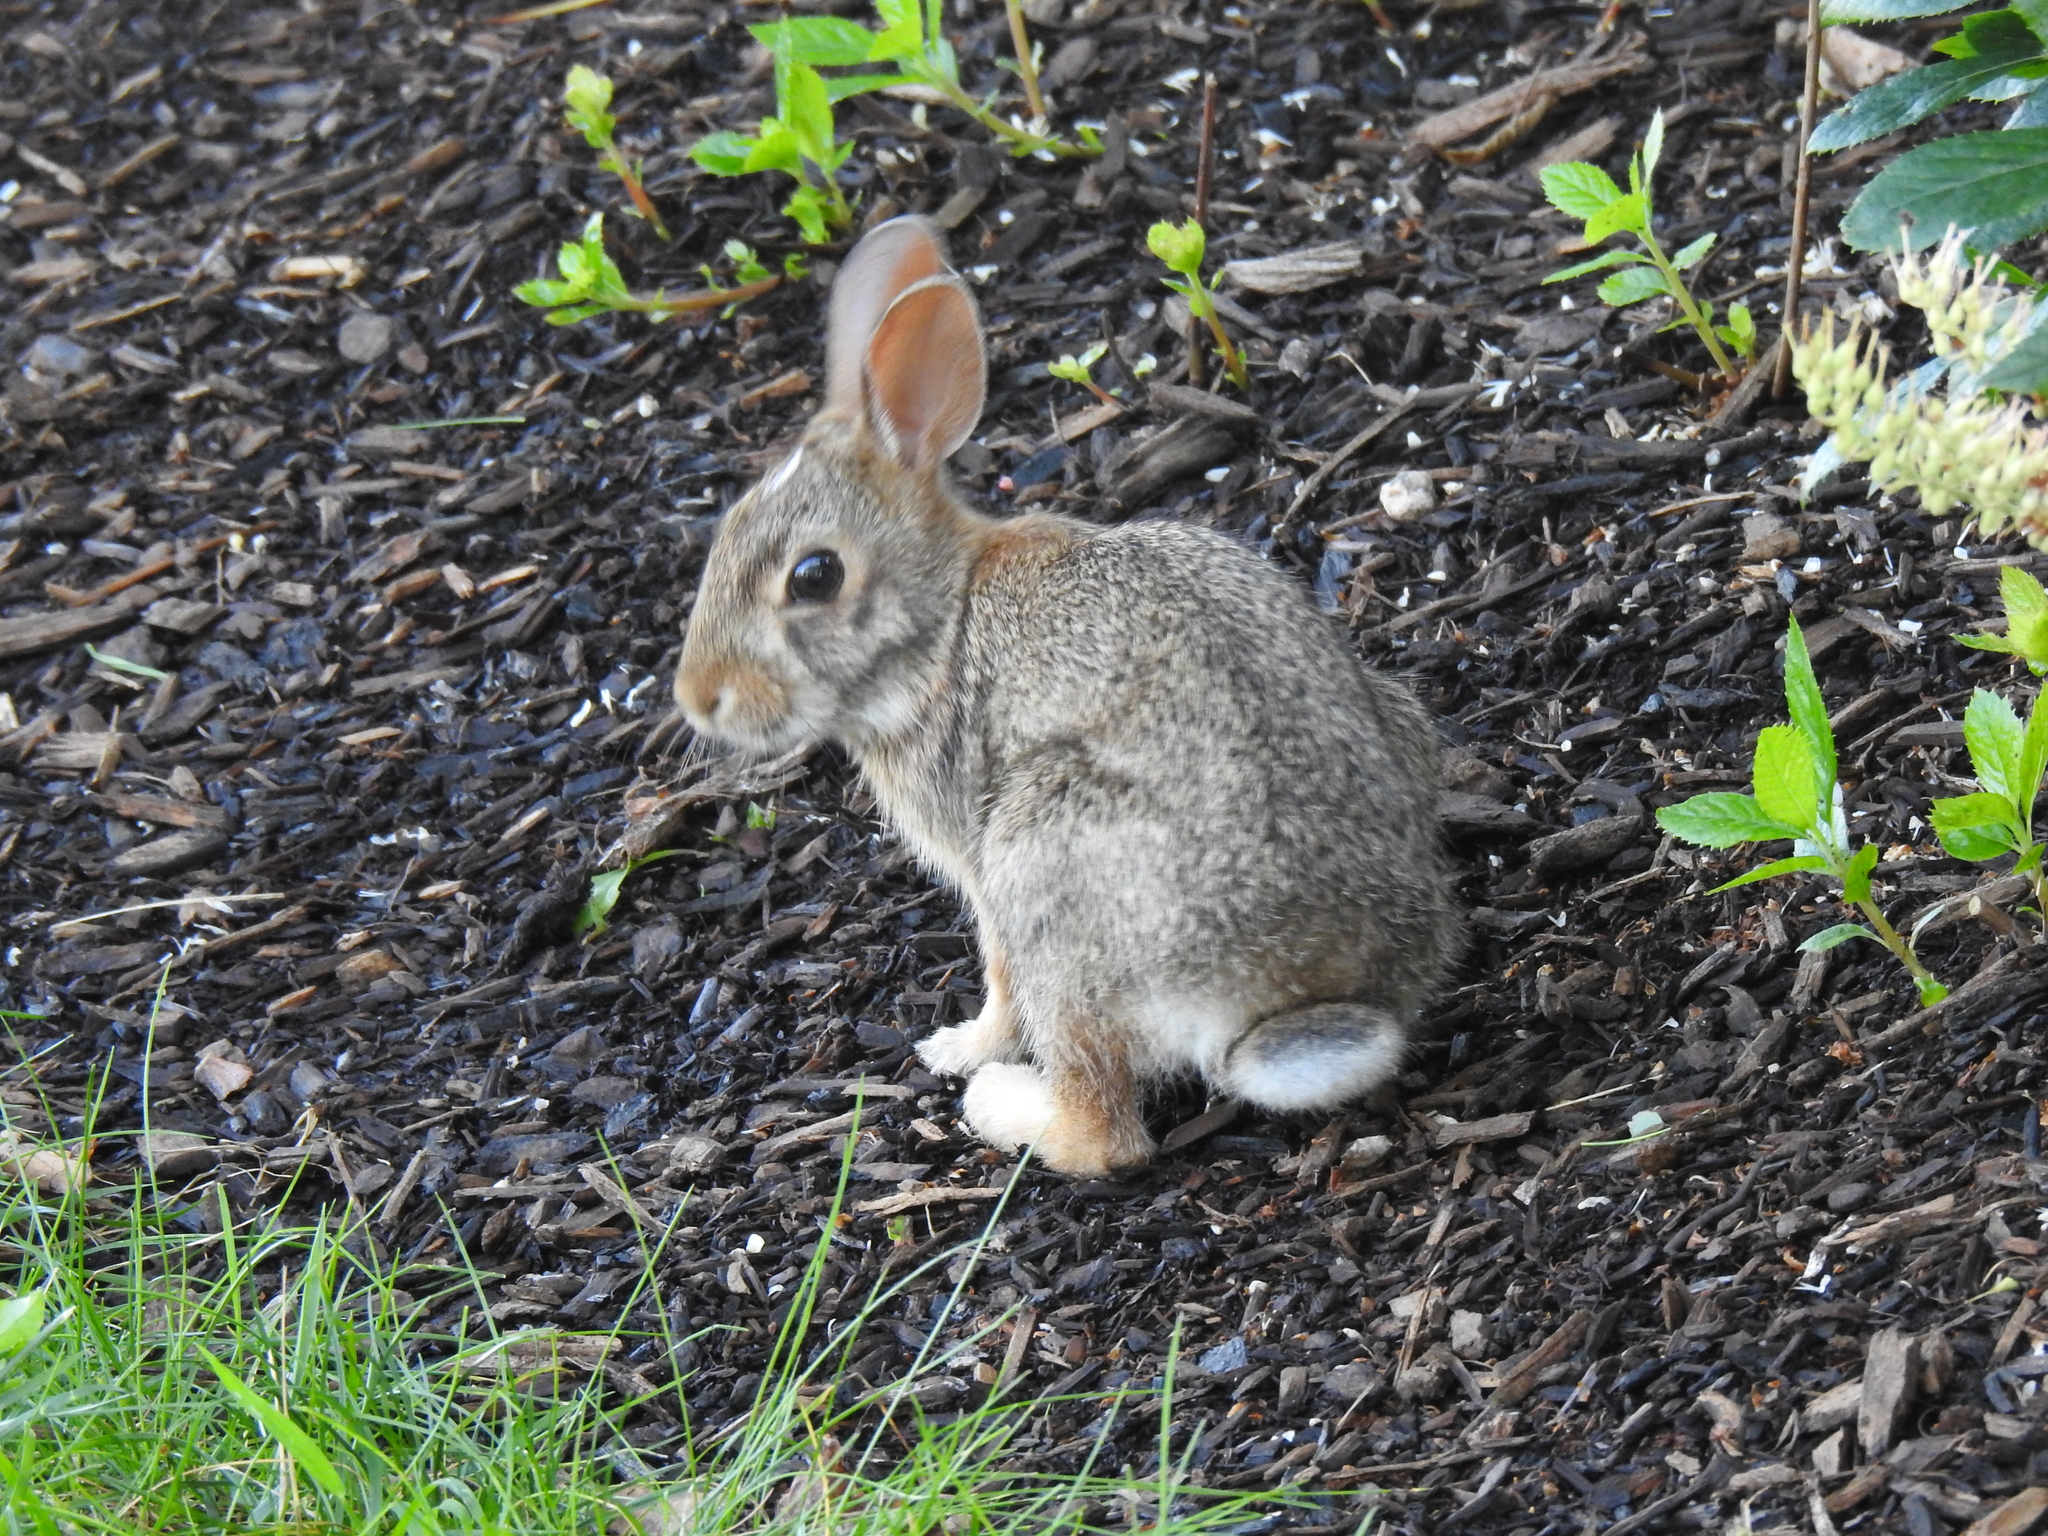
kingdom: Animalia
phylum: Chordata
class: Mammalia
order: Lagomorpha
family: Leporidae
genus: Sylvilagus
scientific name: Sylvilagus floridanus
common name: Eastern cottontail
